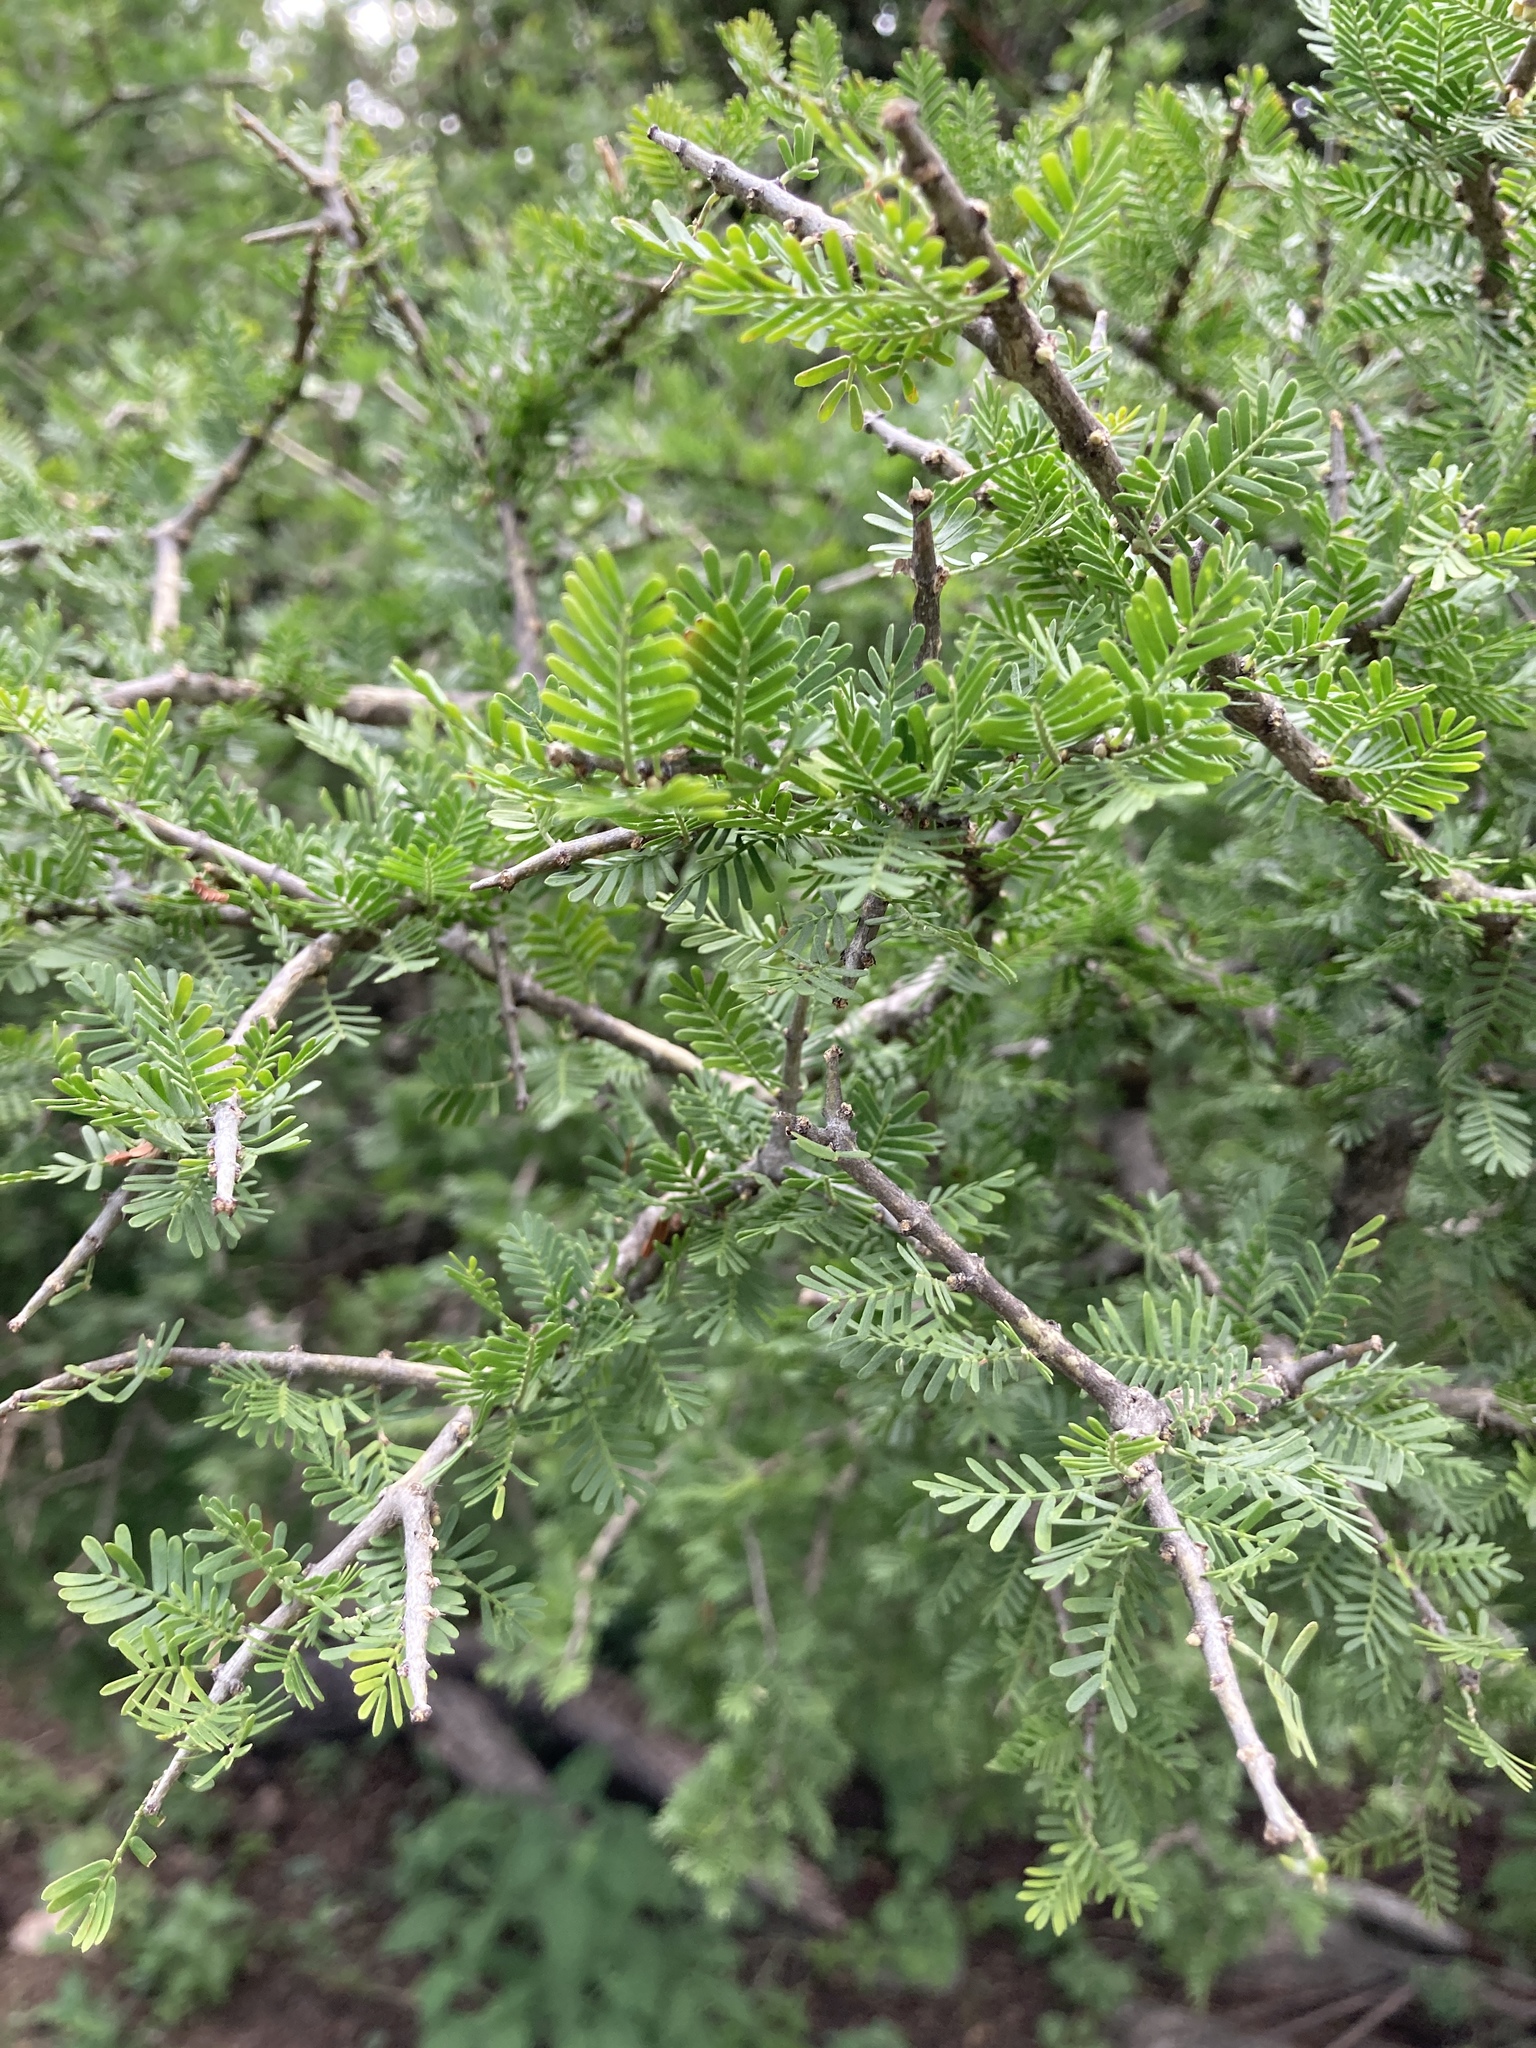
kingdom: Plantae
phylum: Tracheophyta
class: Magnoliopsida
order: Zygophyllales
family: Zygophyllaceae
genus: Porlieria
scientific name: Porlieria microphylla
